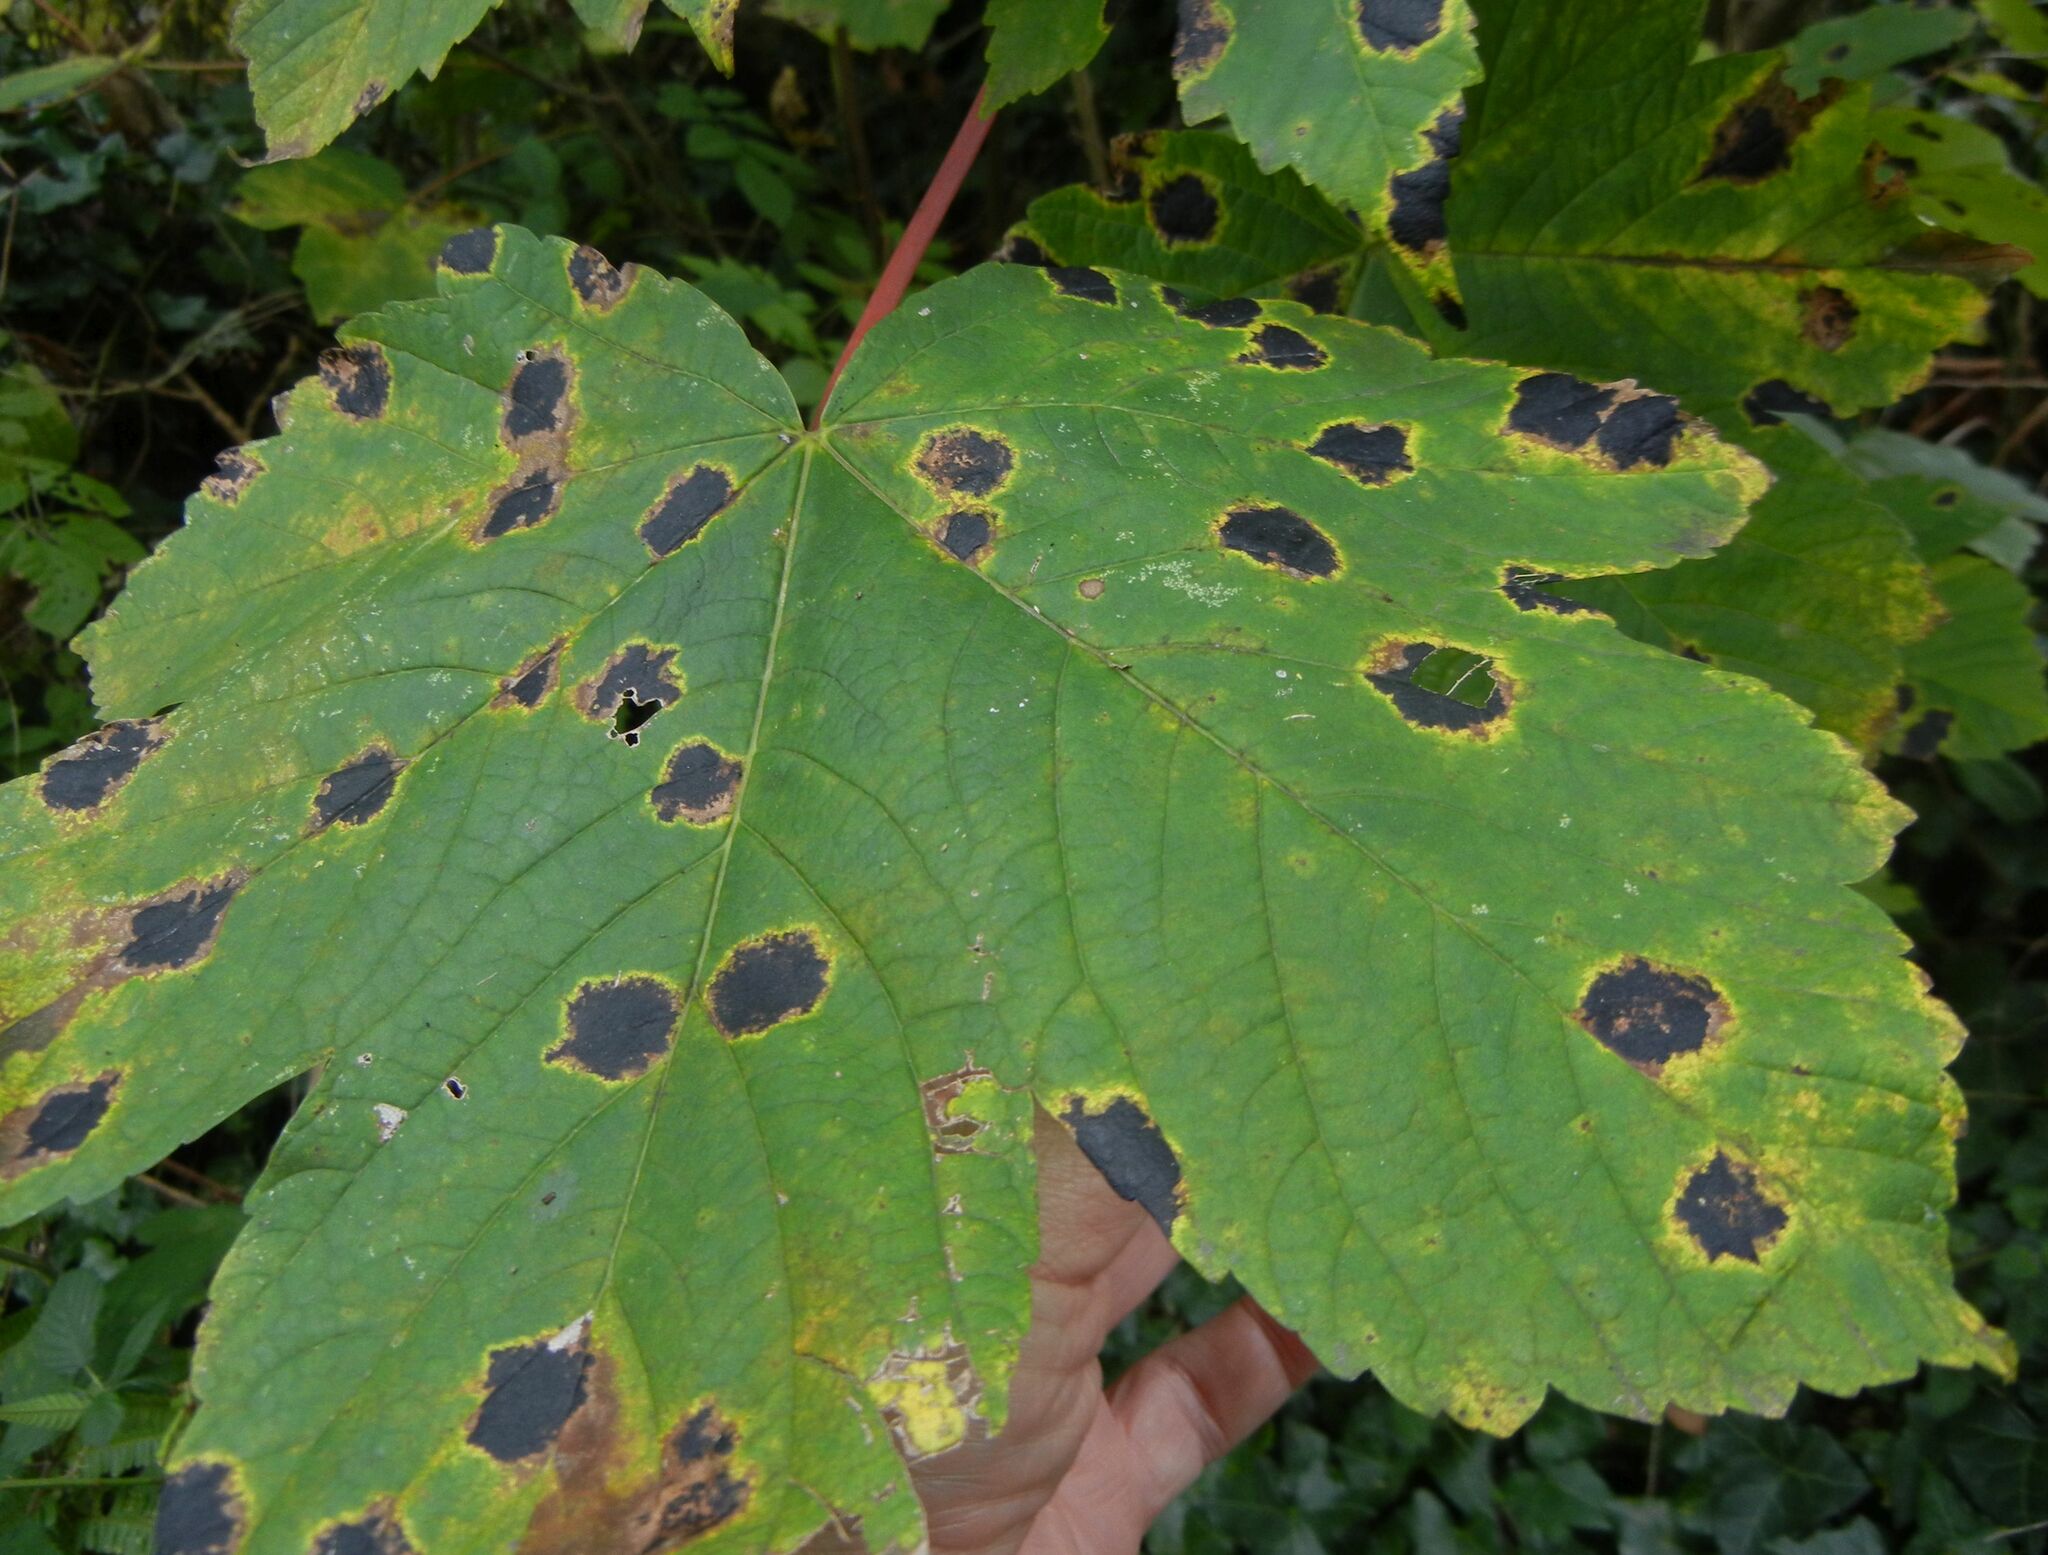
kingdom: Fungi
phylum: Ascomycota
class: Leotiomycetes
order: Rhytismatales
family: Rhytismataceae
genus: Rhytisma
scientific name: Rhytisma acerinum
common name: European tar spot
